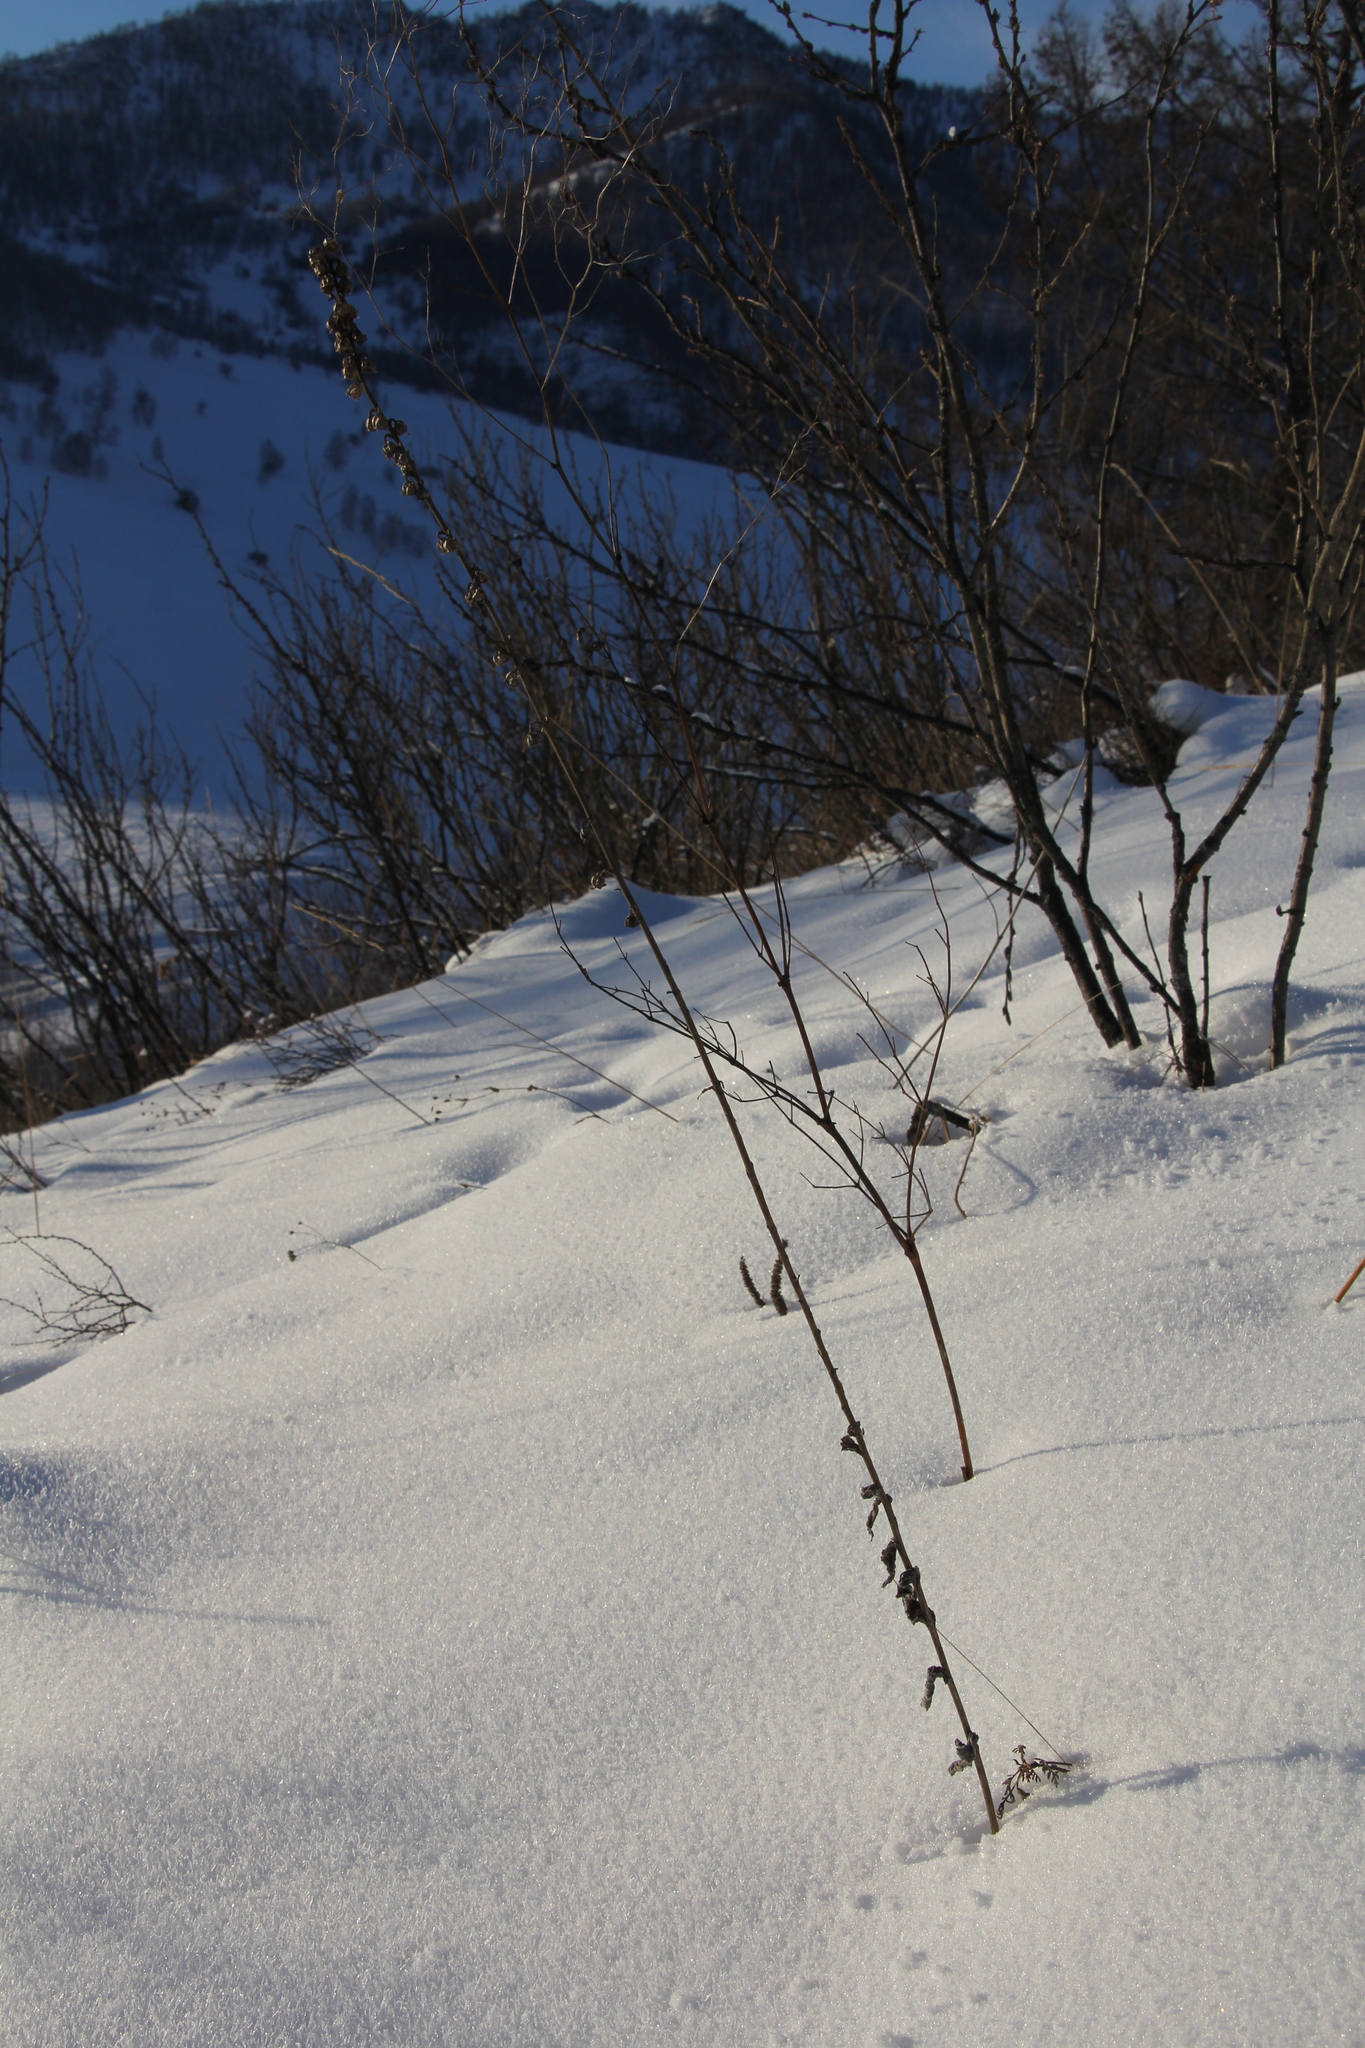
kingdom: Plantae
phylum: Tracheophyta
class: Magnoliopsida
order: Asterales
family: Campanulaceae
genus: Campanula
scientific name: Campanula bononiensis
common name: Pale bellflower
